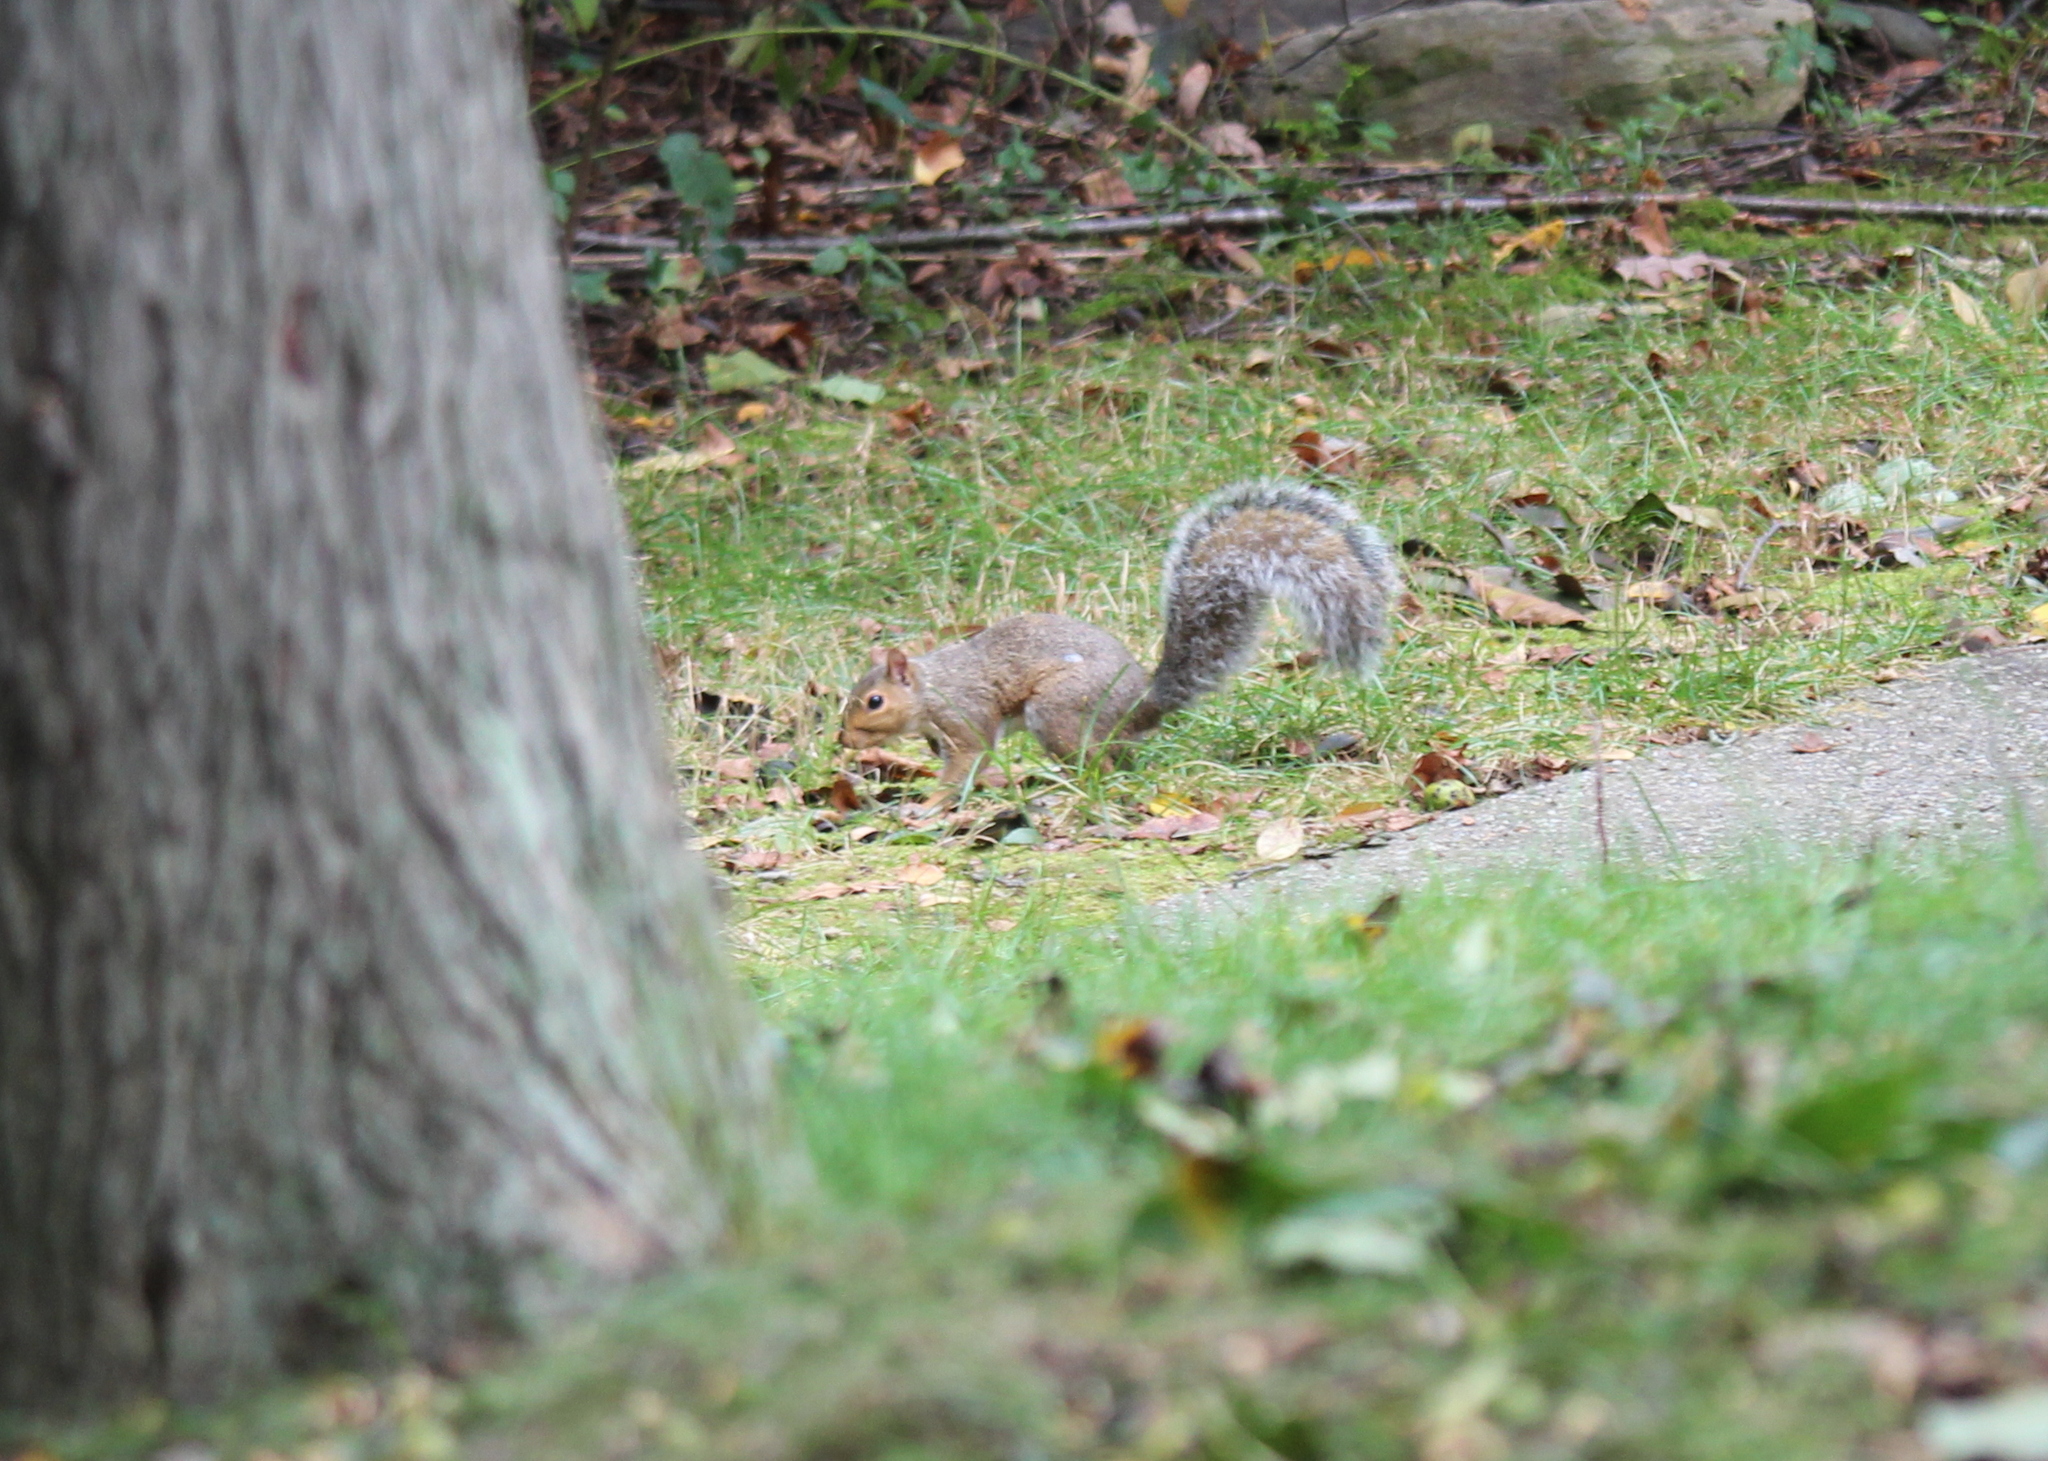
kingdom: Animalia
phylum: Chordata
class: Mammalia
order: Rodentia
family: Sciuridae
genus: Sciurus
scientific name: Sciurus carolinensis
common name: Eastern gray squirrel
